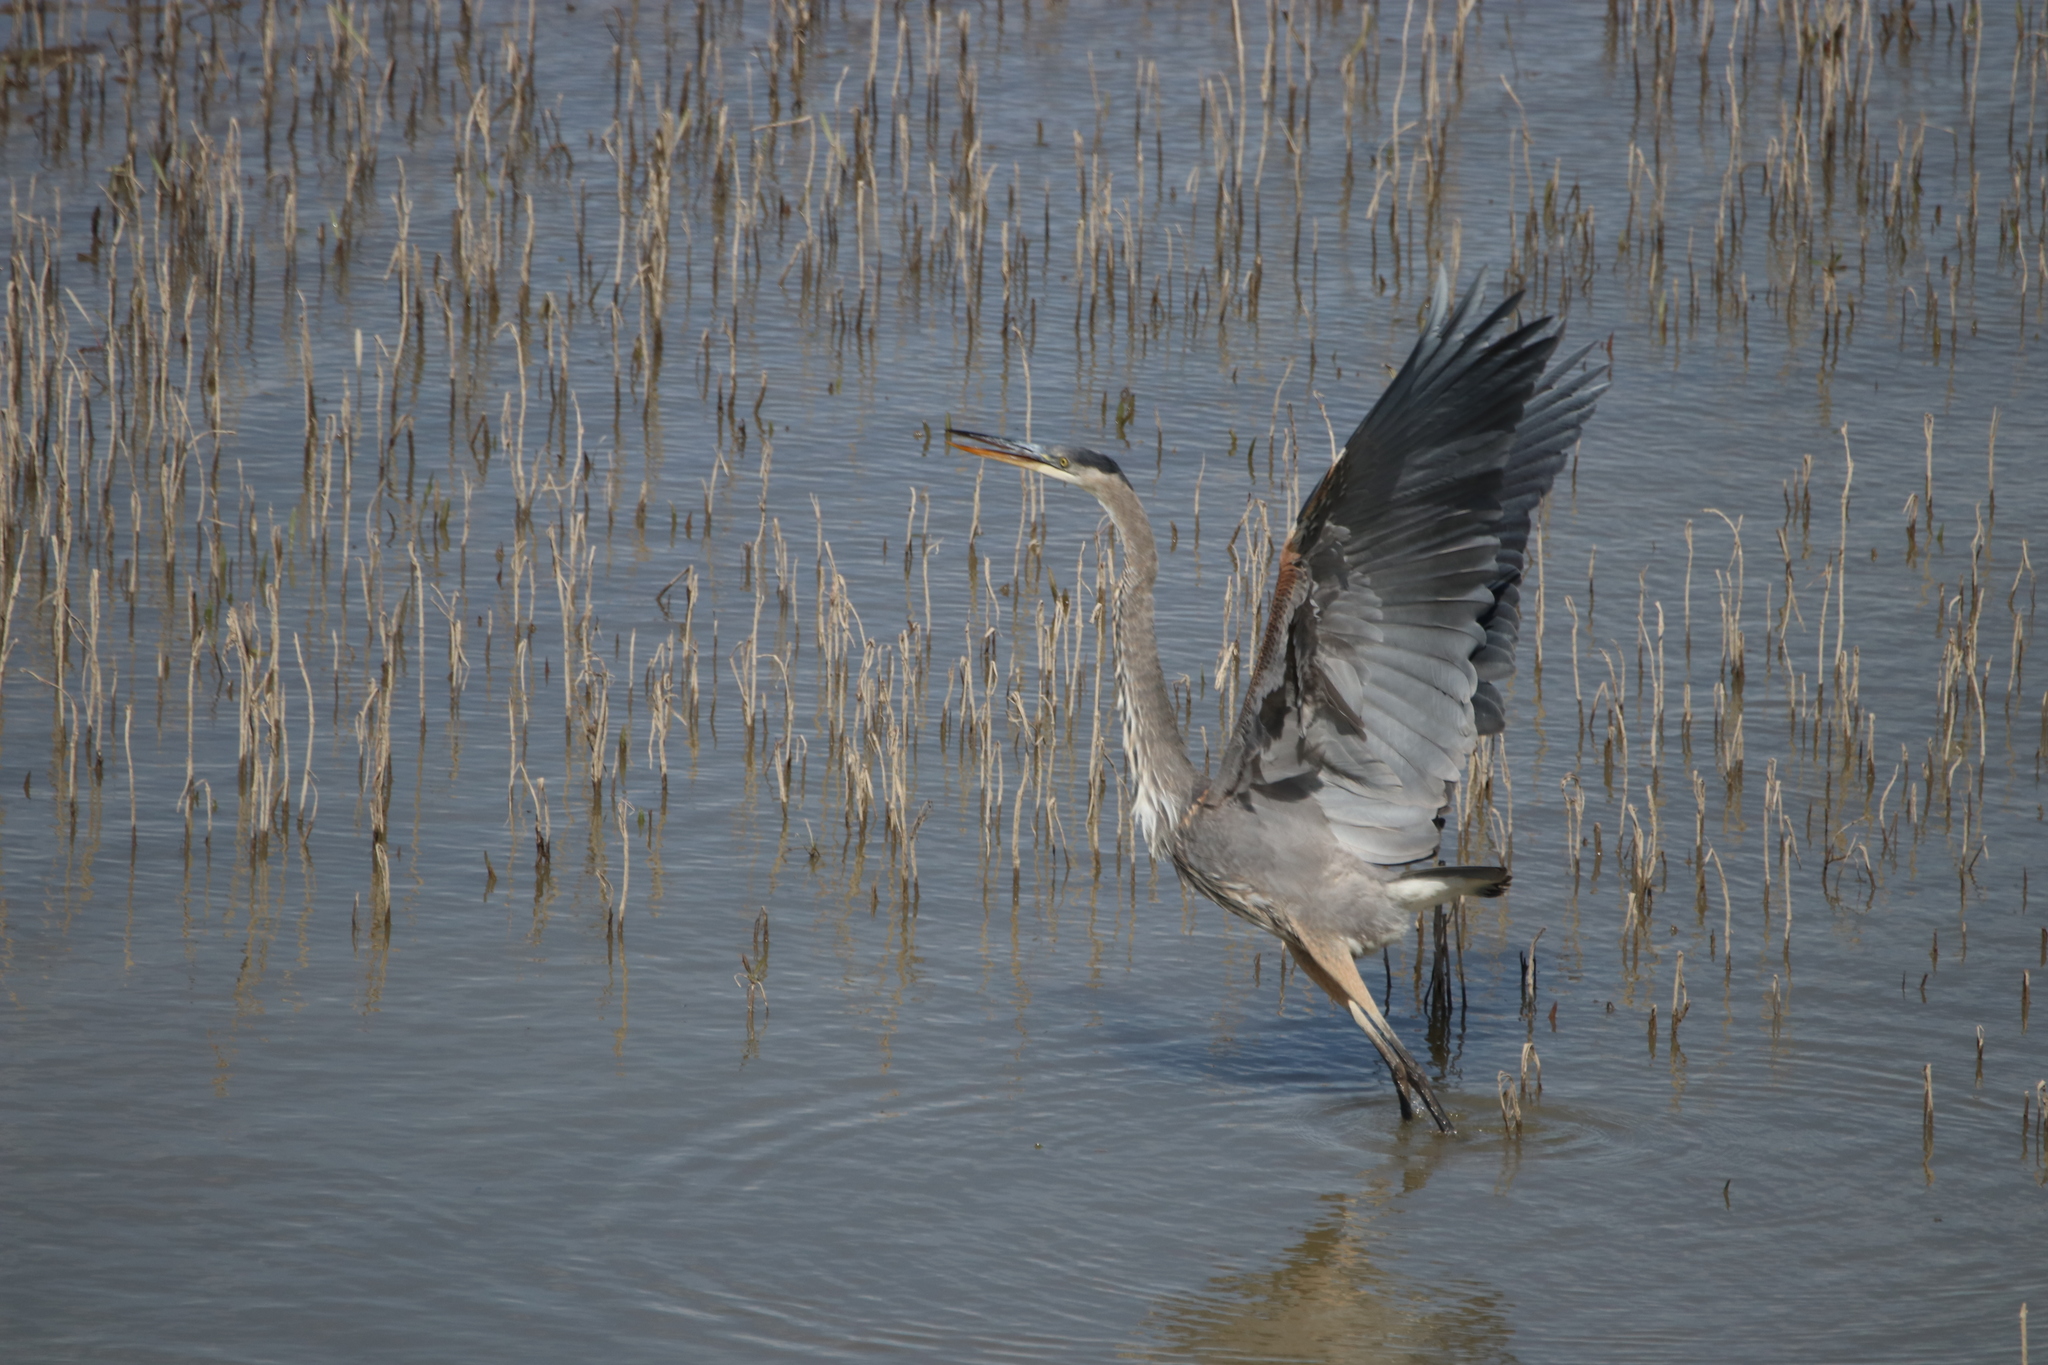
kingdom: Animalia
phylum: Chordata
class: Aves
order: Pelecaniformes
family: Ardeidae
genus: Ardea
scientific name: Ardea herodias
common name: Great blue heron
